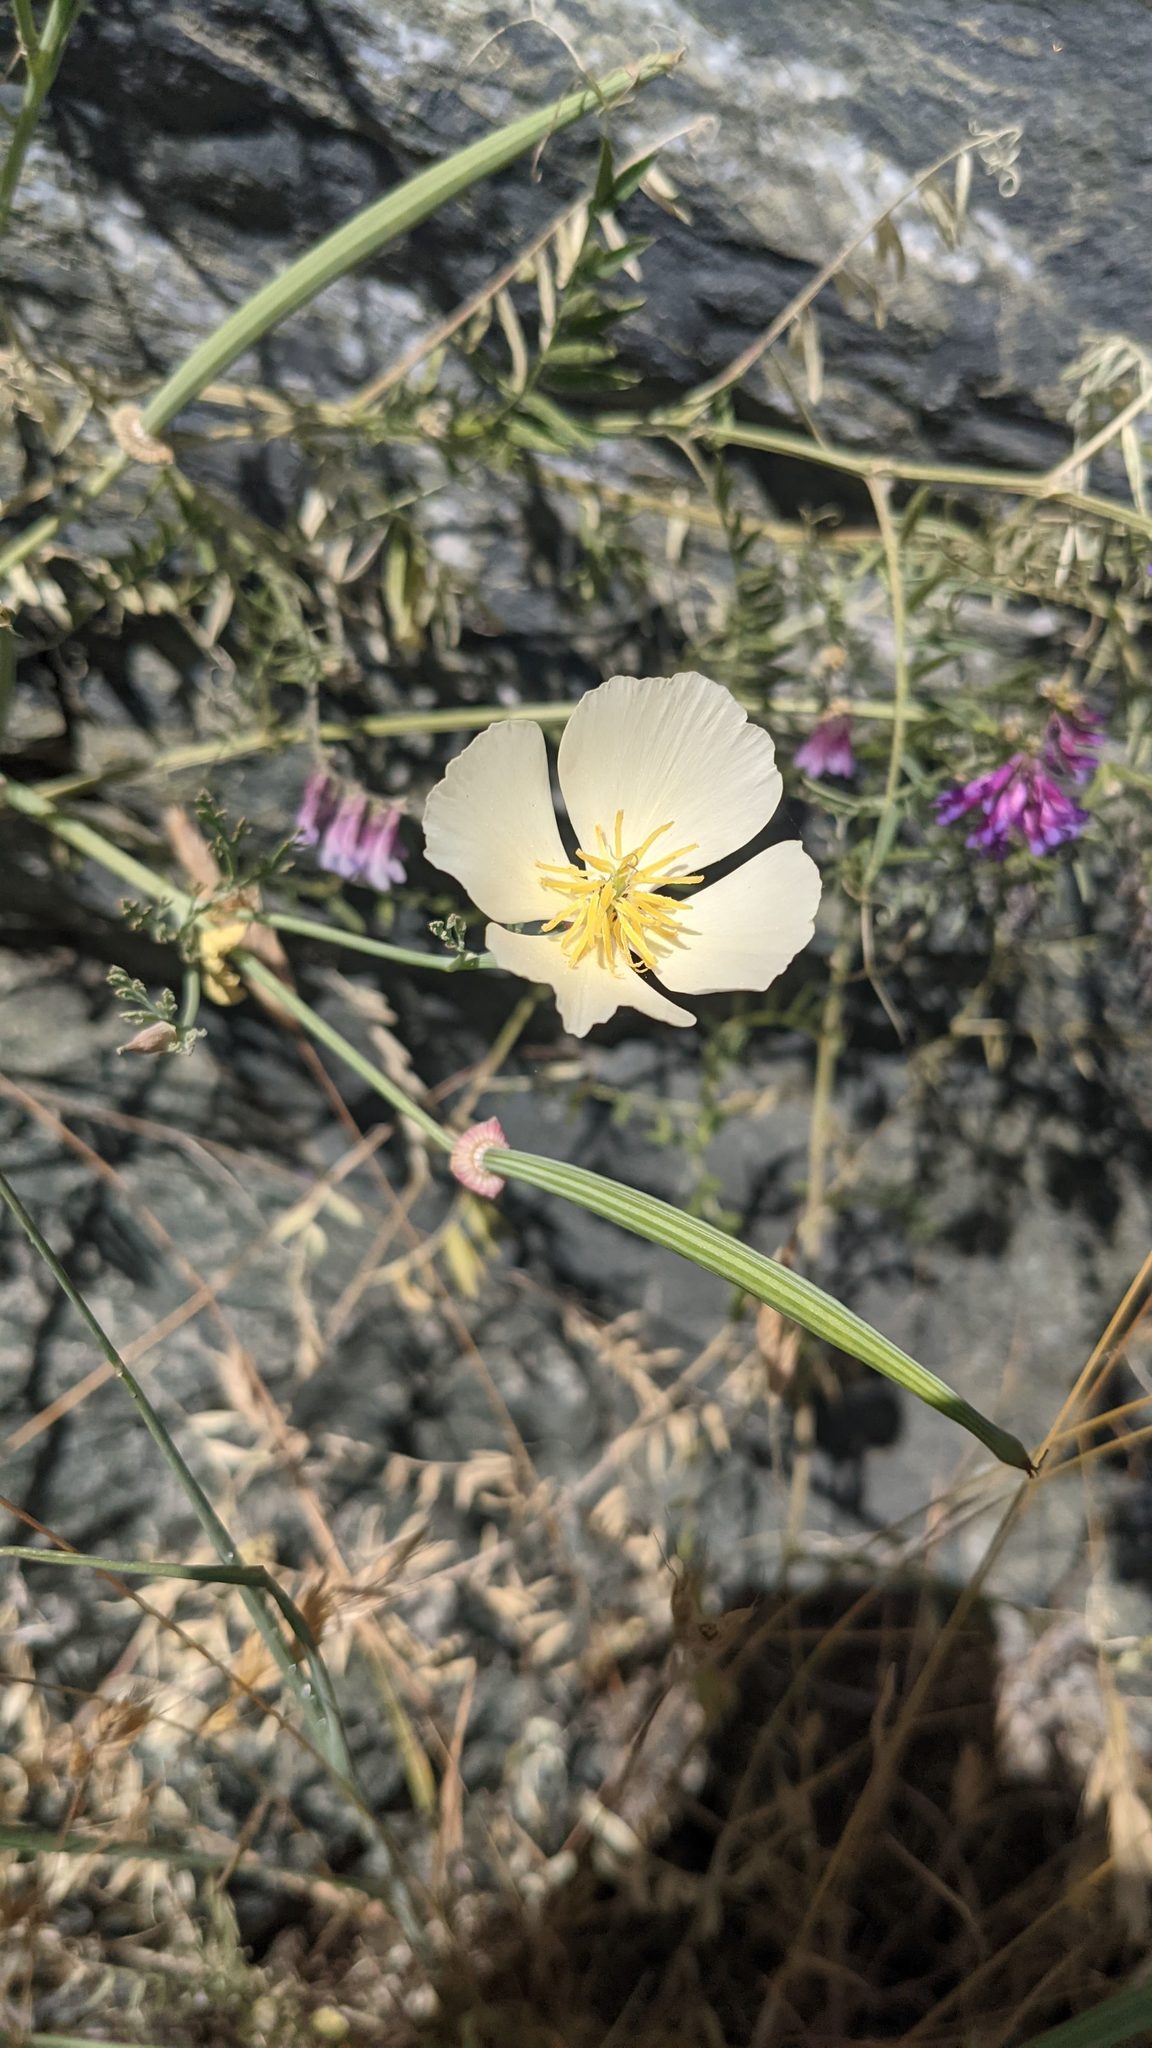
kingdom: Plantae
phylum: Tracheophyta
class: Magnoliopsida
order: Ranunculales
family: Papaveraceae
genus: Eschscholzia
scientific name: Eschscholzia californica
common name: California poppy
